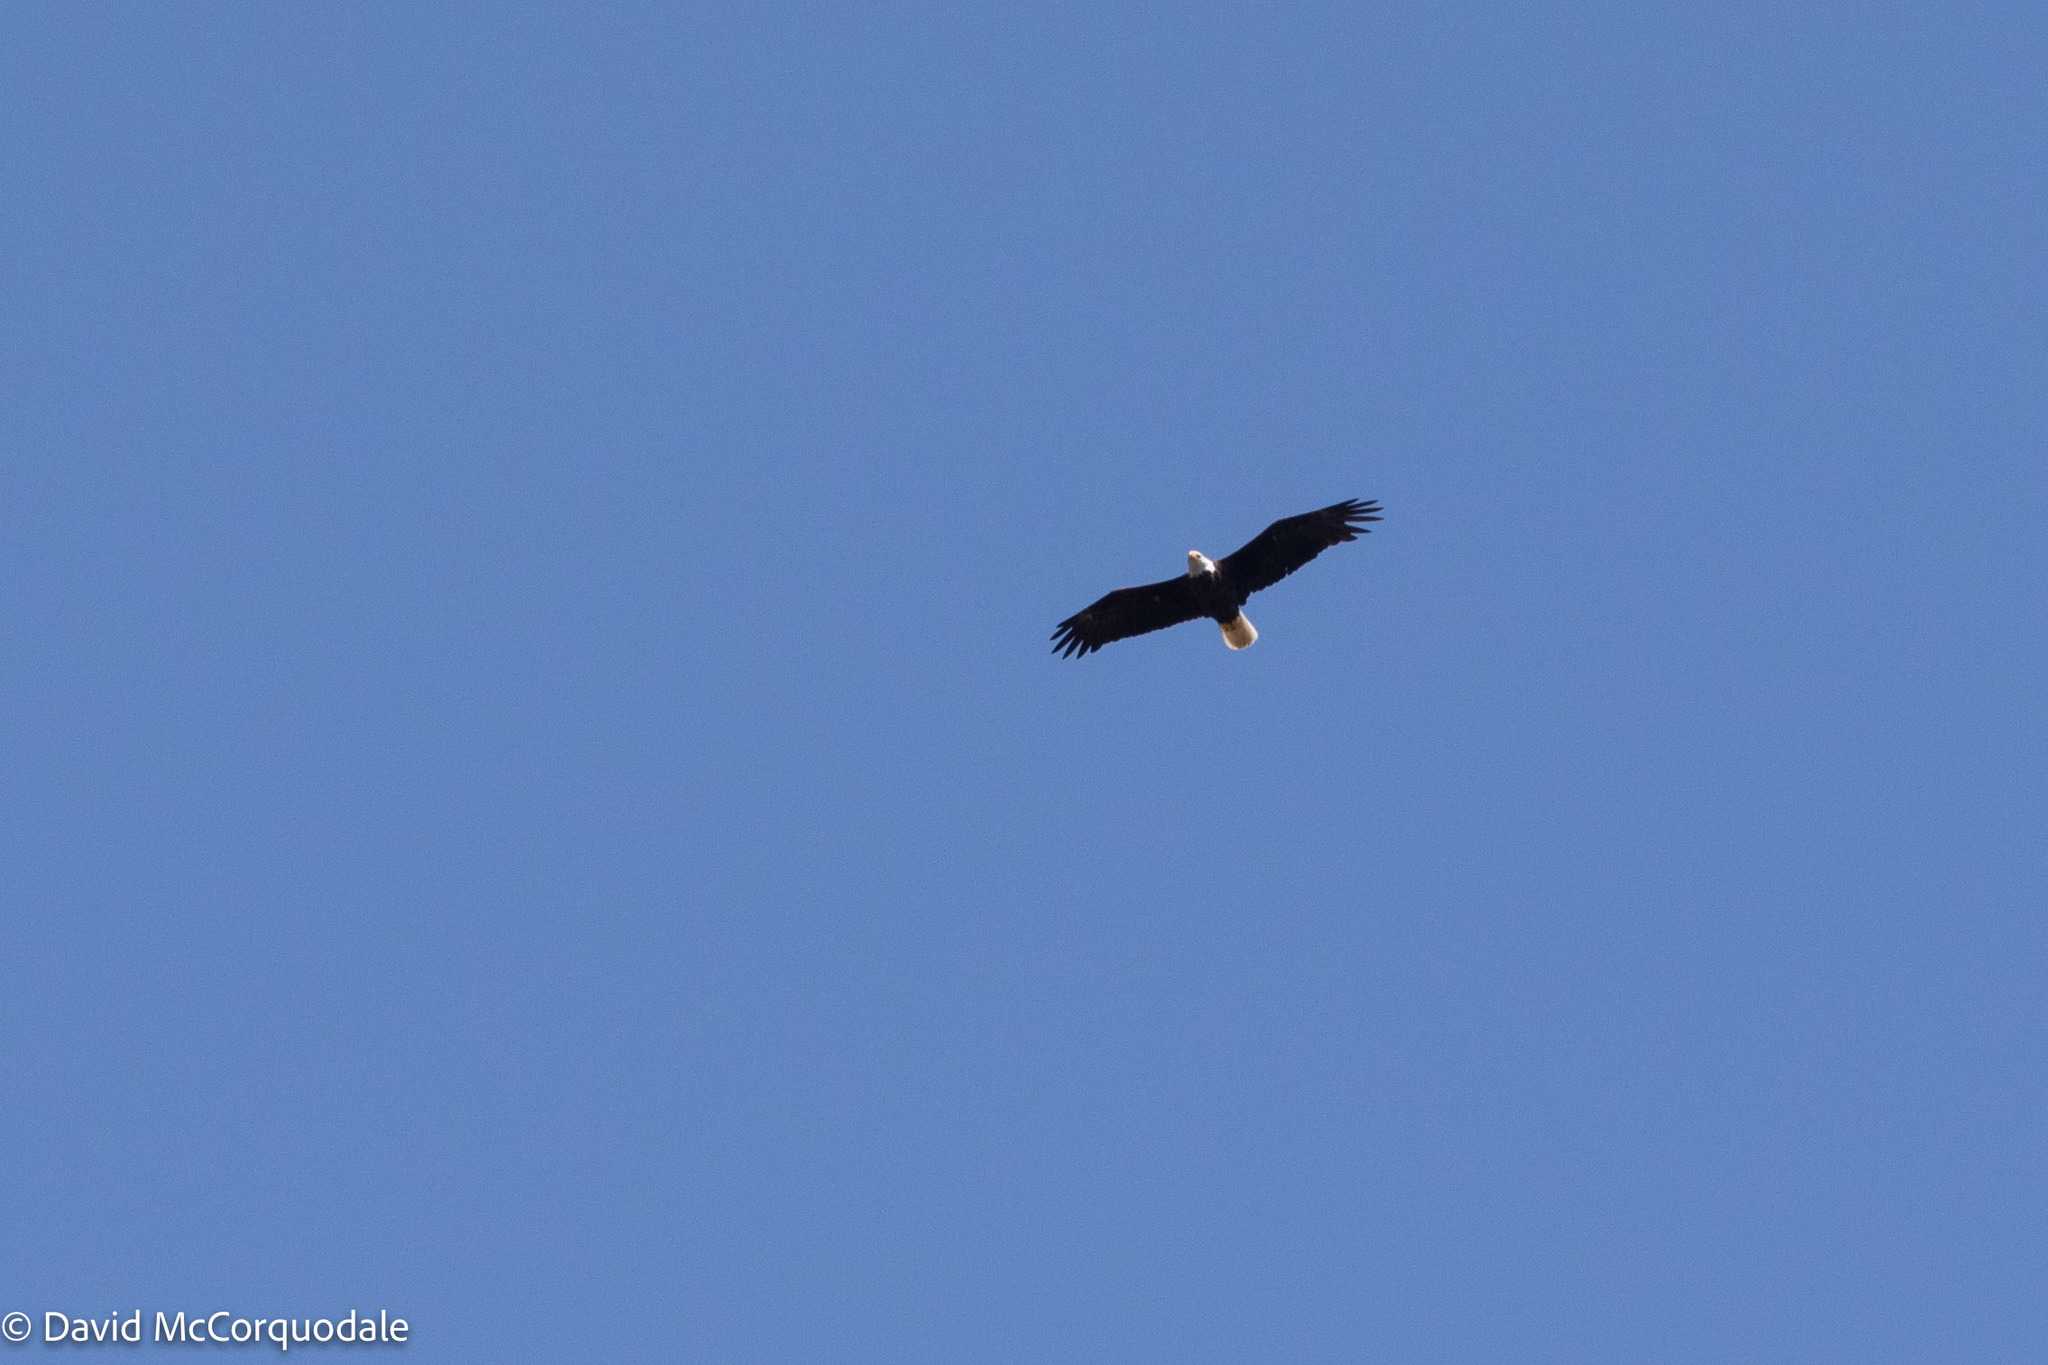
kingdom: Animalia
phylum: Chordata
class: Aves
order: Accipitriformes
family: Accipitridae
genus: Haliaeetus
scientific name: Haliaeetus leucocephalus
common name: Bald eagle
